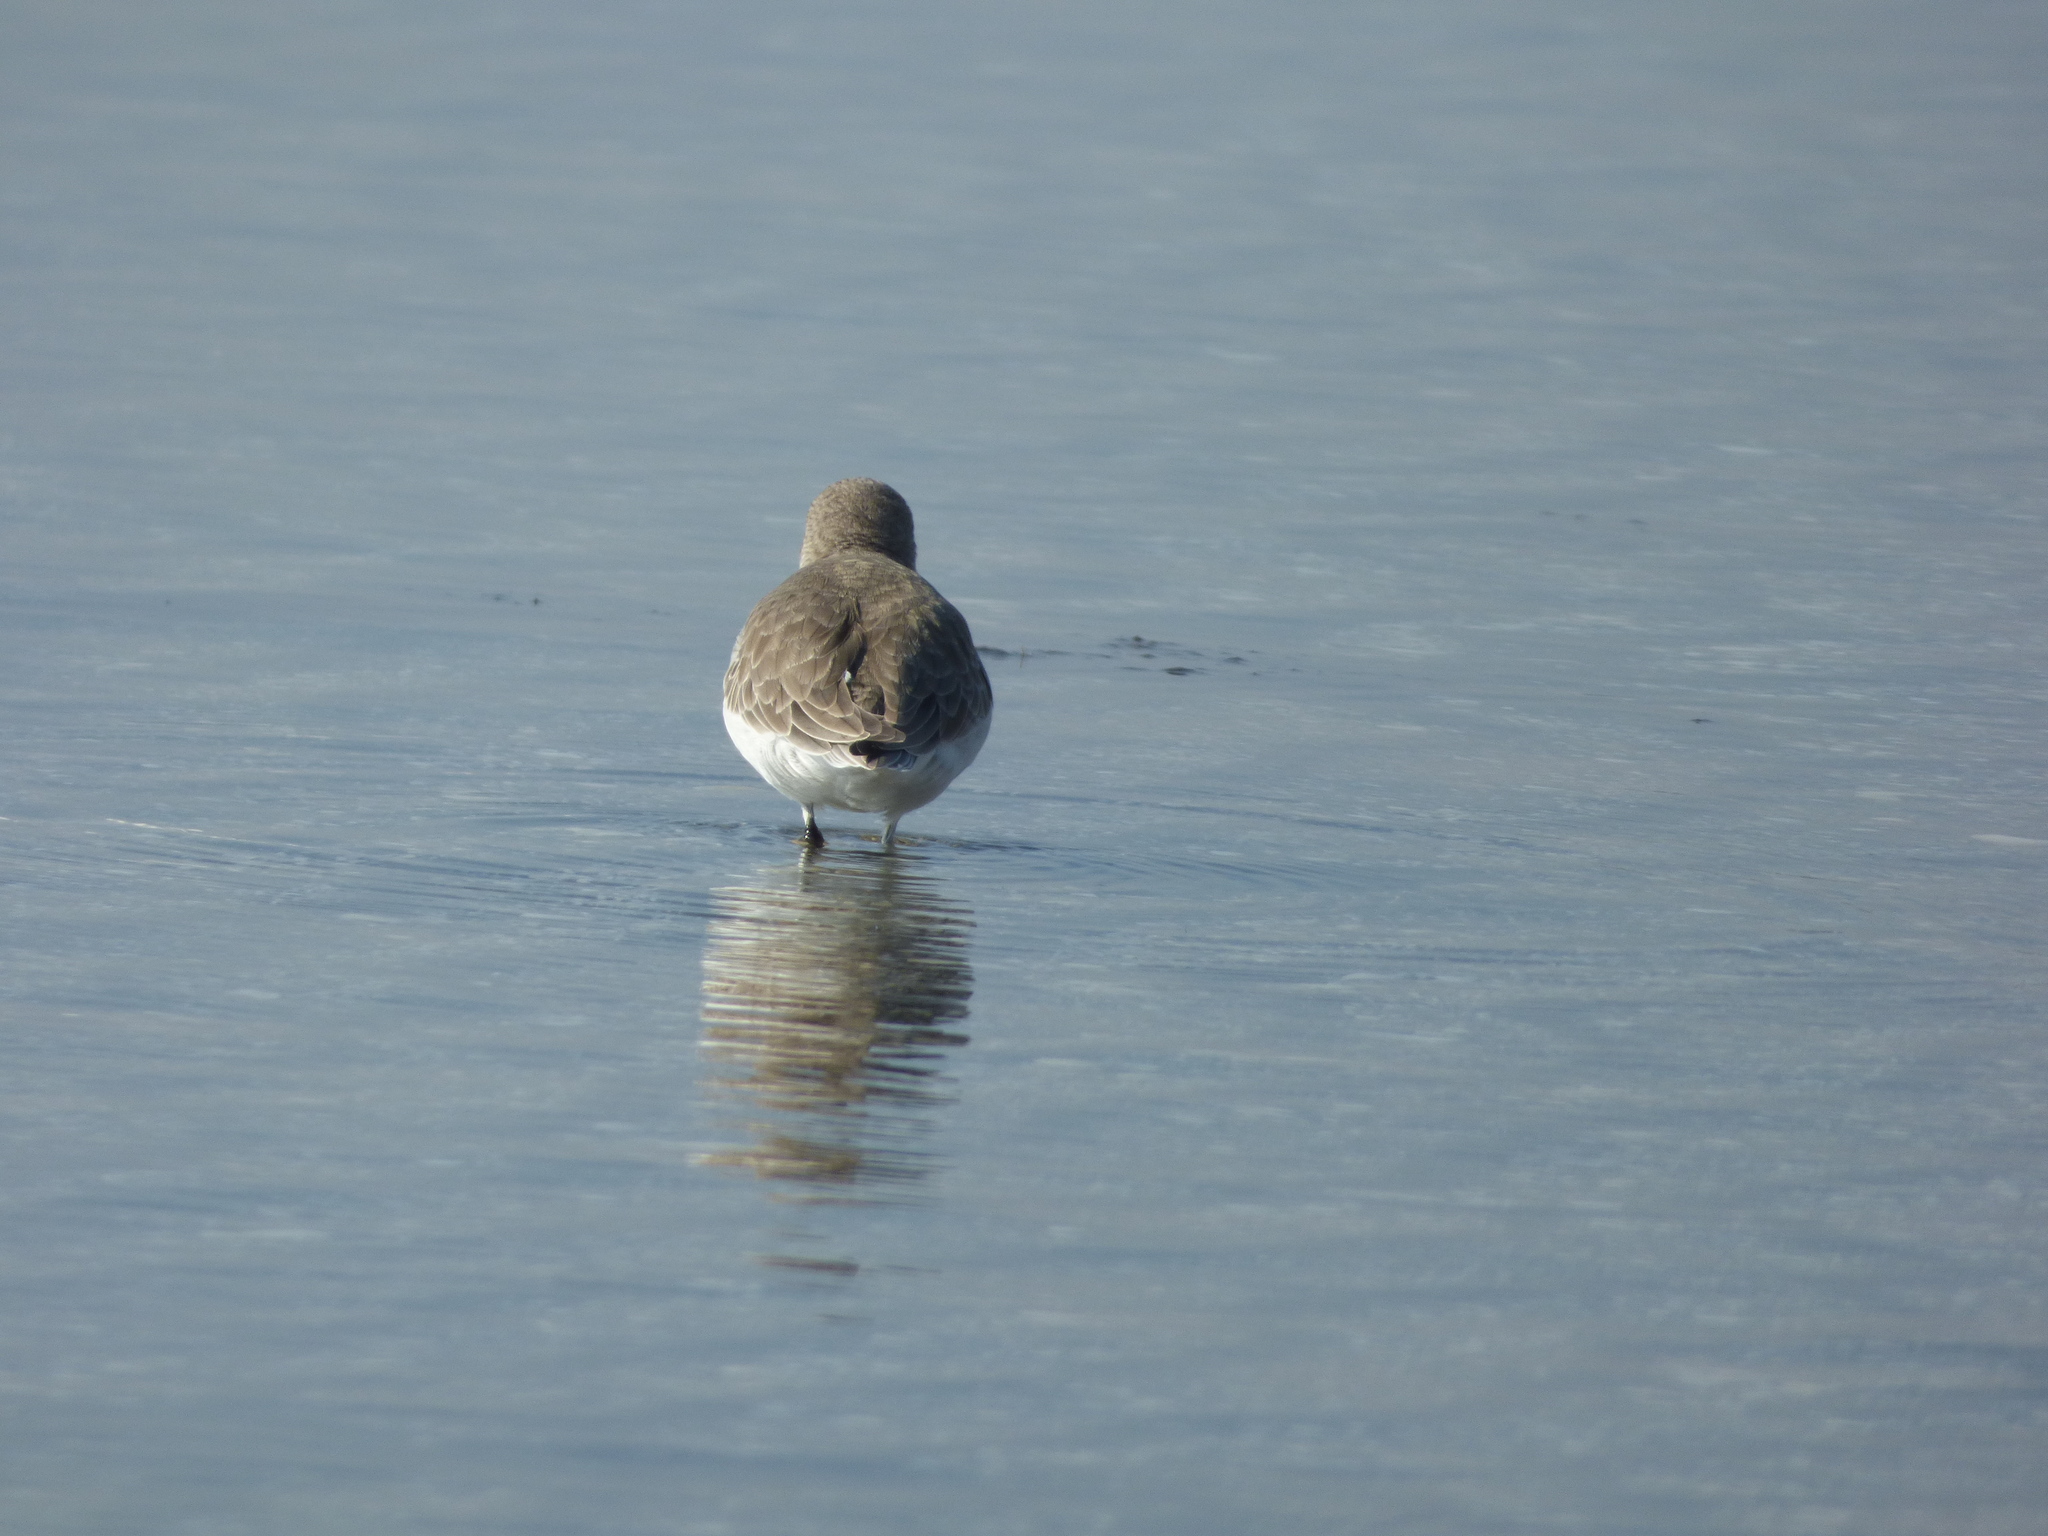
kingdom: Animalia
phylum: Chordata
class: Aves
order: Charadriiformes
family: Scolopacidae
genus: Calidris
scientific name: Calidris alpina
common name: Dunlin
